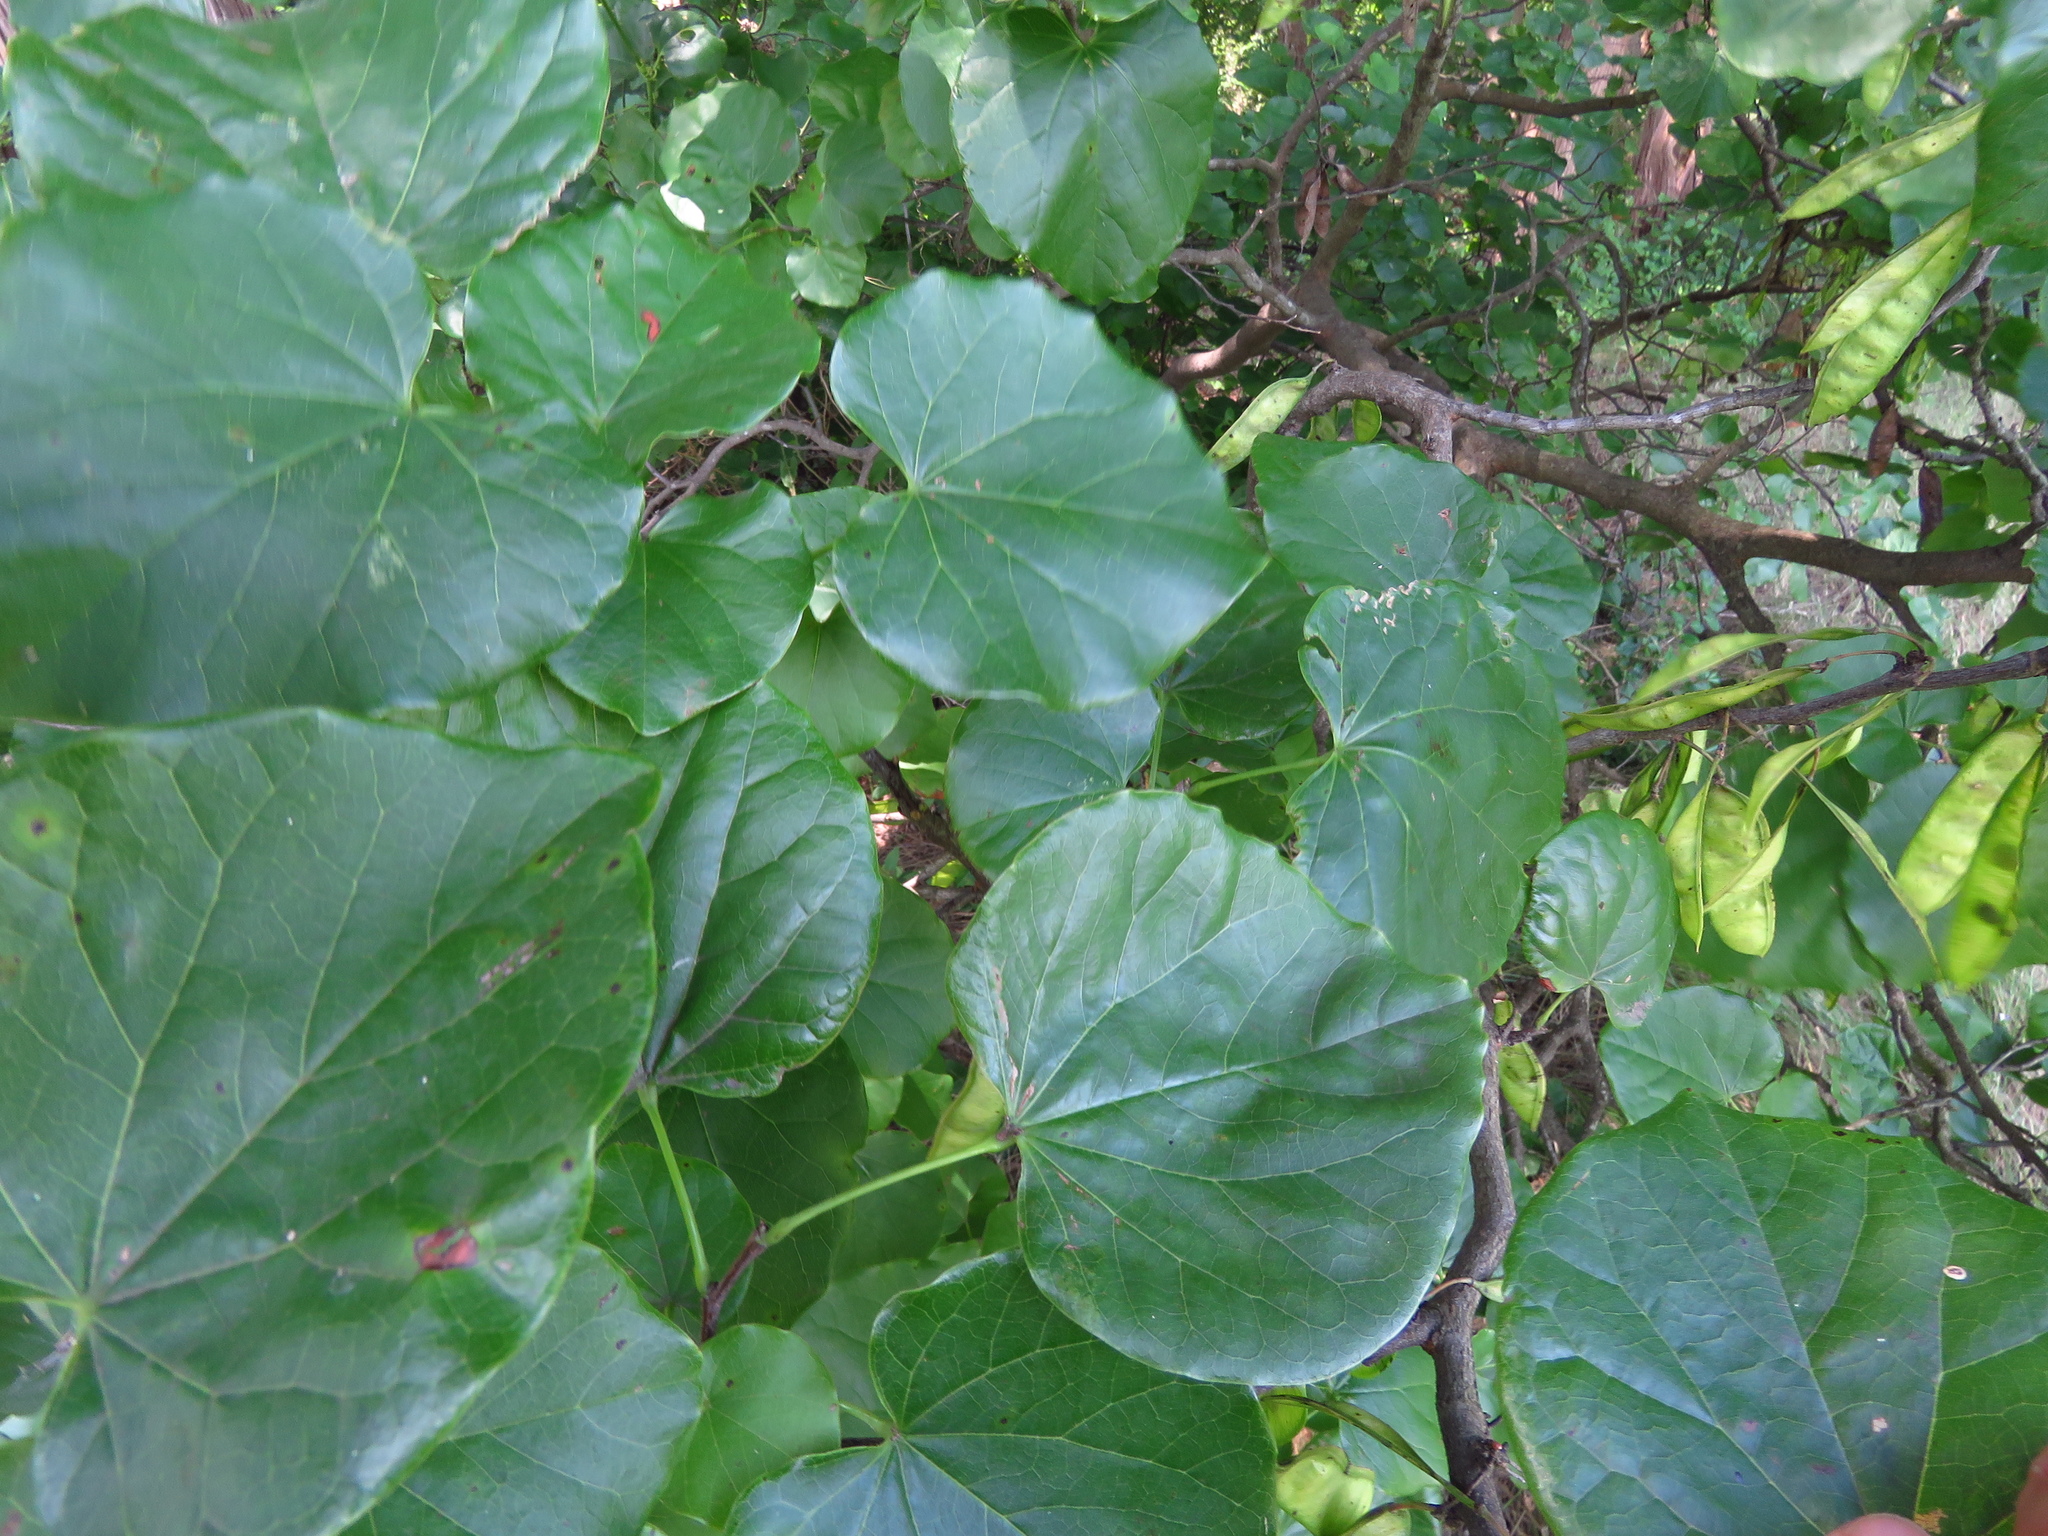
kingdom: Plantae
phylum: Tracheophyta
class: Magnoliopsida
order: Fabales
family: Fabaceae
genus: Cercis
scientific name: Cercis canadensis
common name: Eastern redbud
